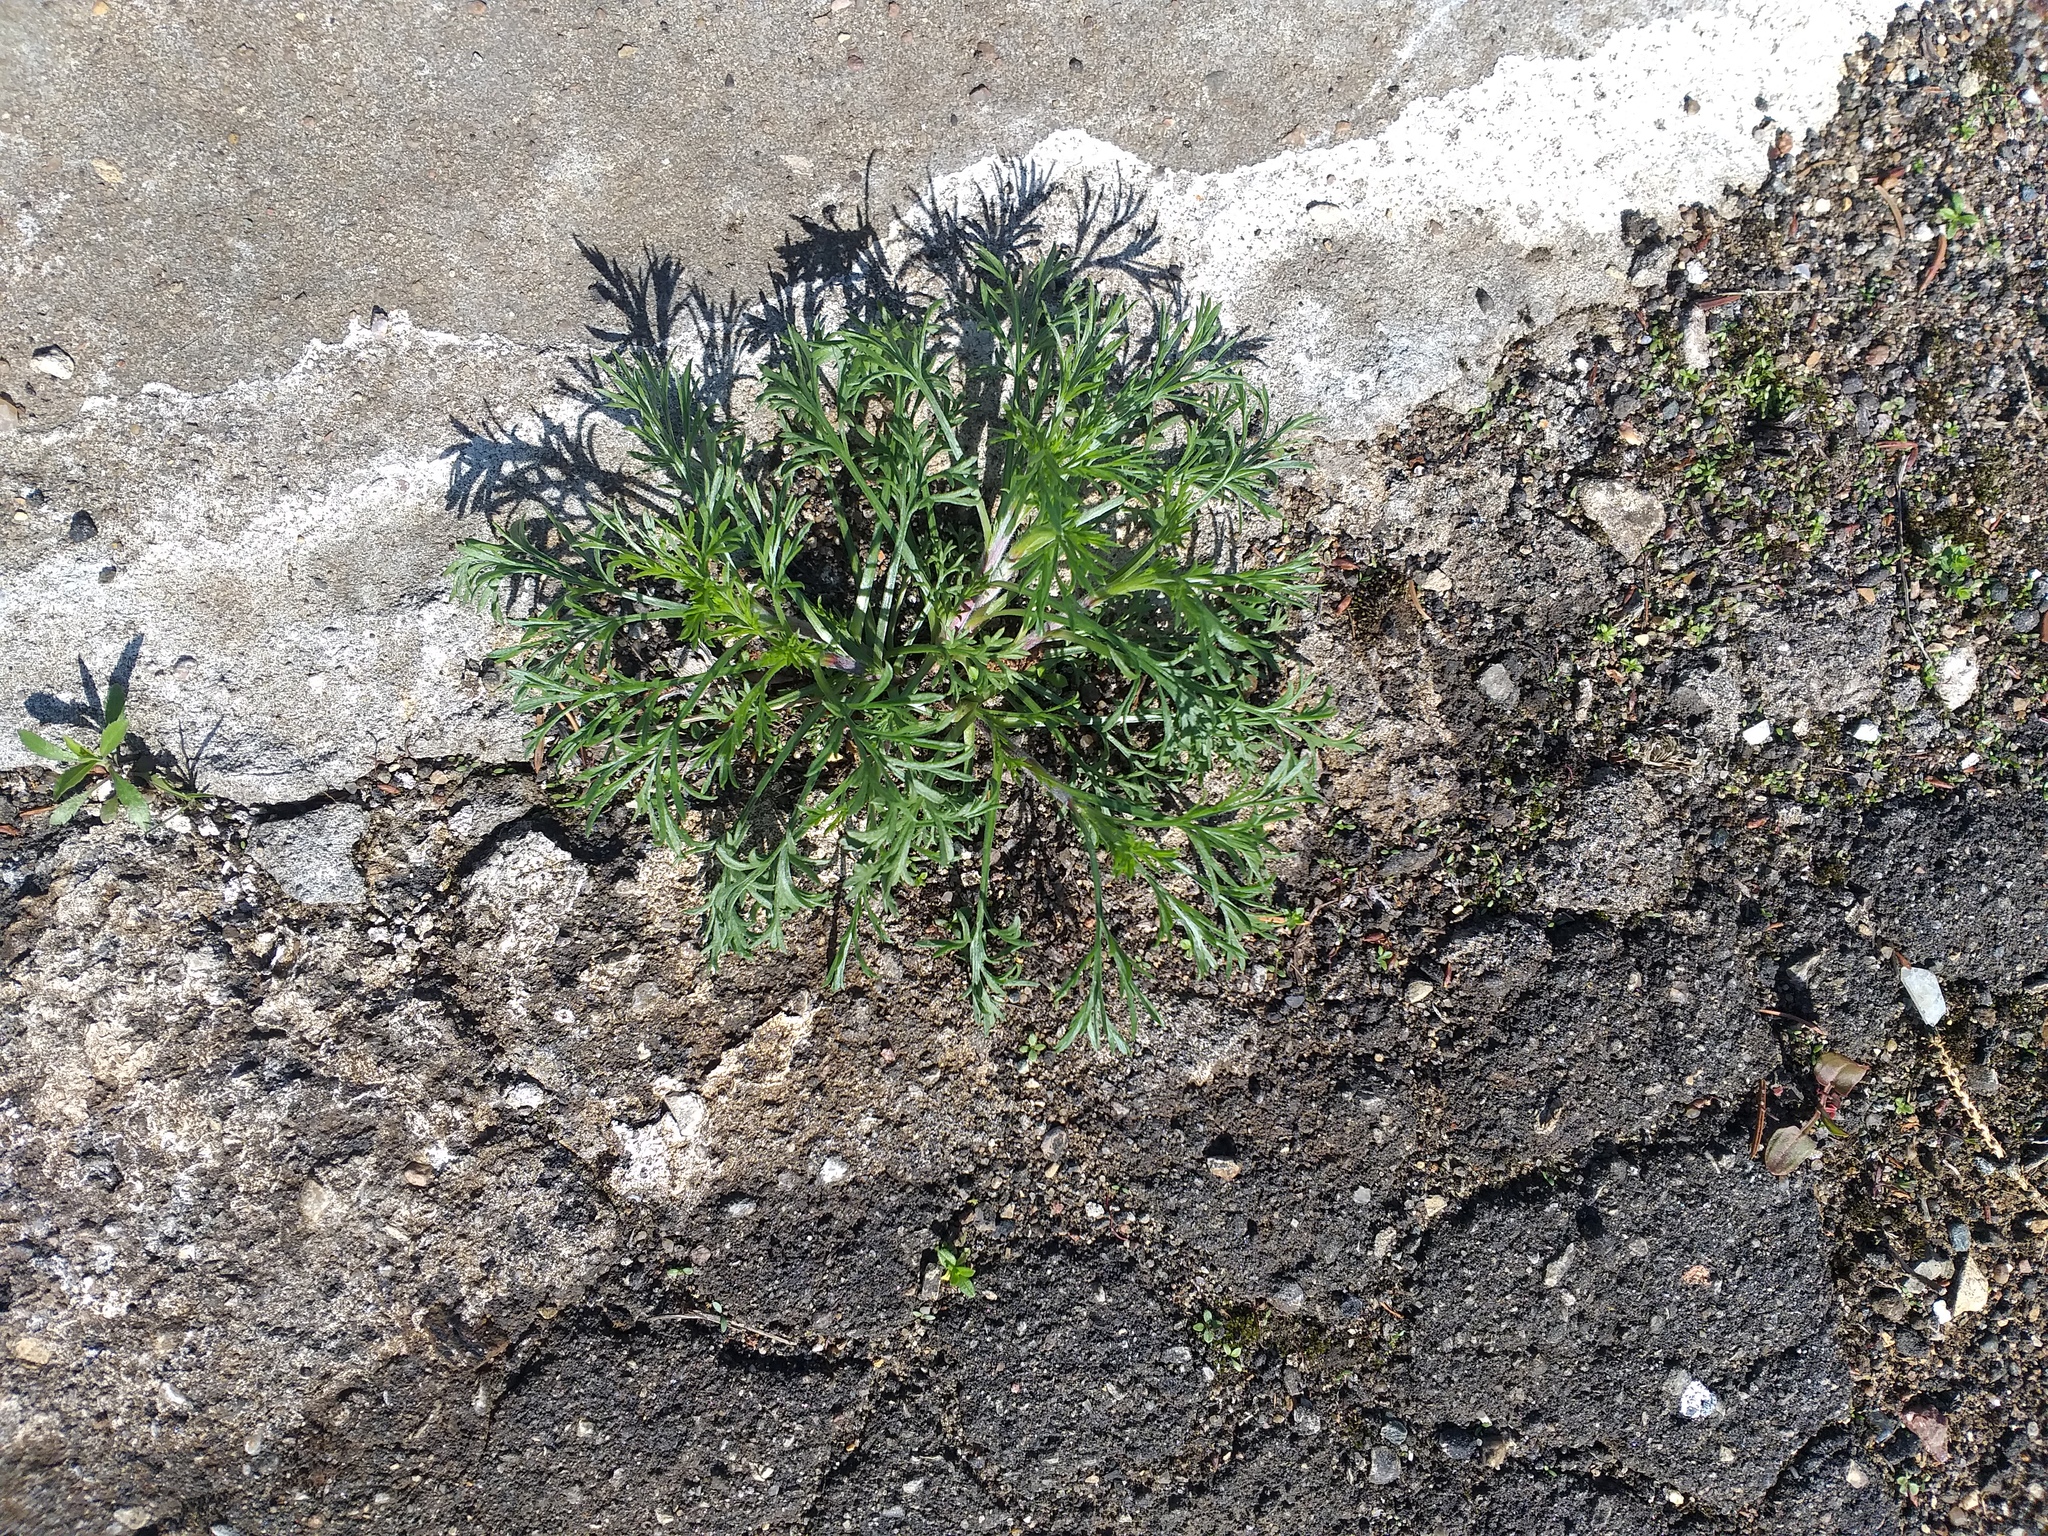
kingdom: Plantae
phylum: Tracheophyta
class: Magnoliopsida
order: Asterales
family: Asteraceae
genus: Artemisia
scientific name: Artemisia campestris
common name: Field wormwood
